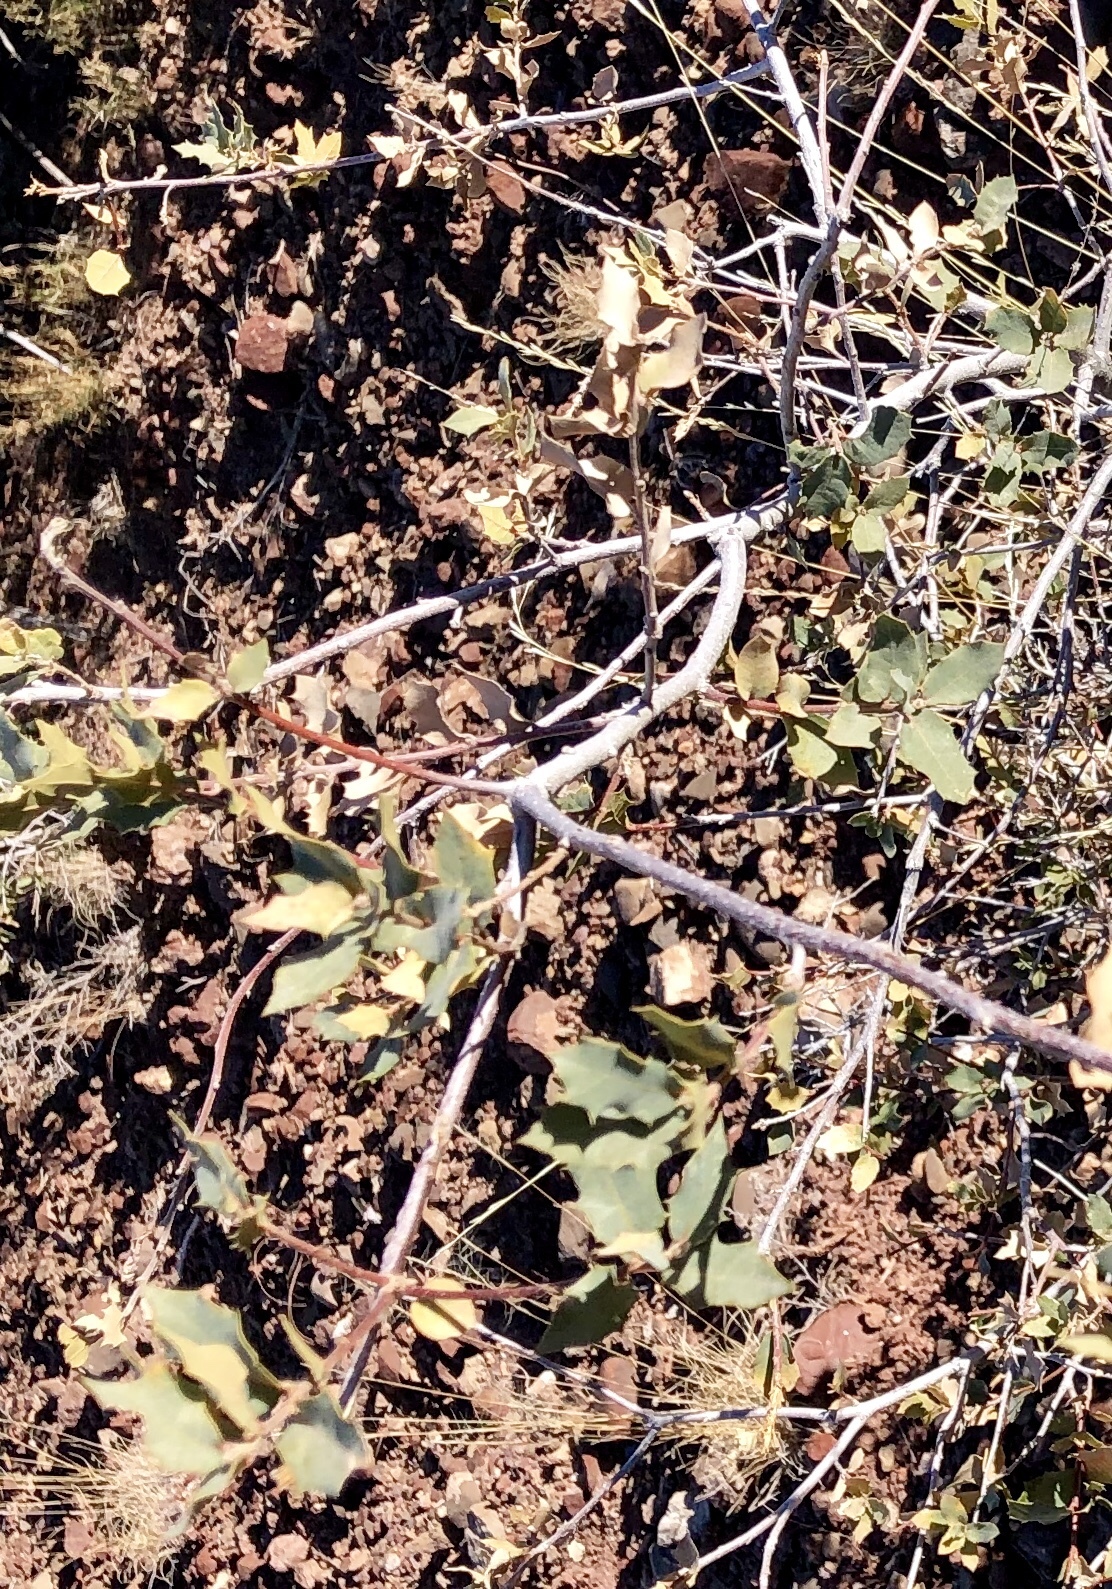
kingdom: Plantae
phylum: Tracheophyta
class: Magnoliopsida
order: Fagales
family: Fagaceae
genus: Quercus
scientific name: Quercus undulata
